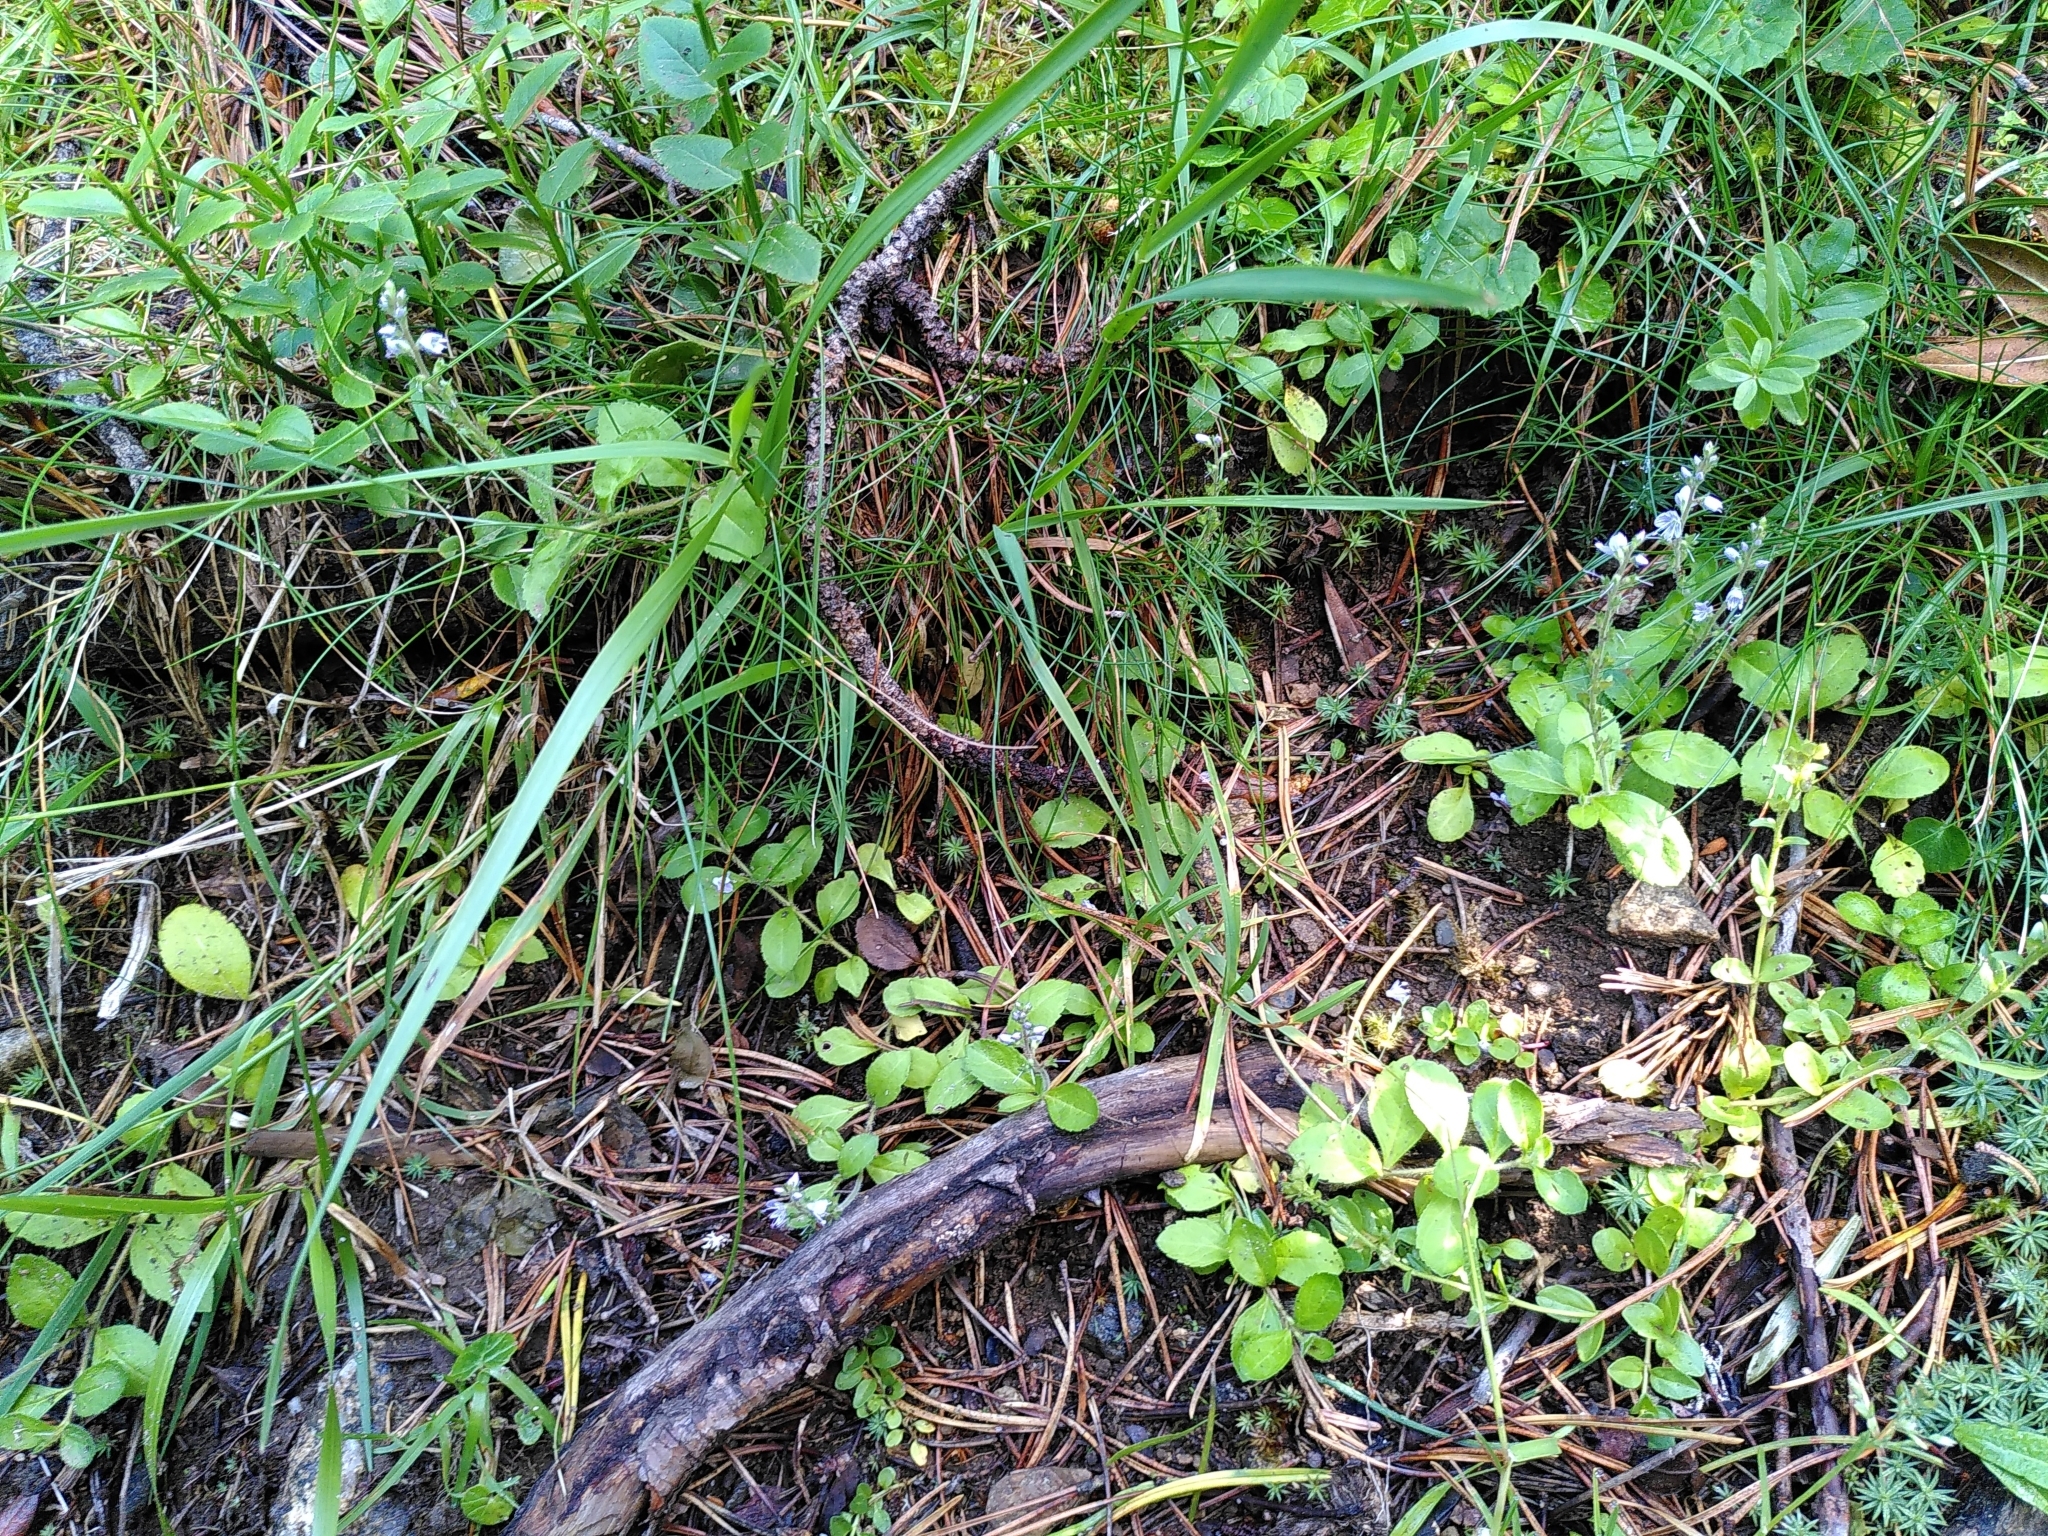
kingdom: Plantae
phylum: Tracheophyta
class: Magnoliopsida
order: Lamiales
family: Plantaginaceae
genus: Veronica
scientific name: Veronica officinalis
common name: Common speedwell
